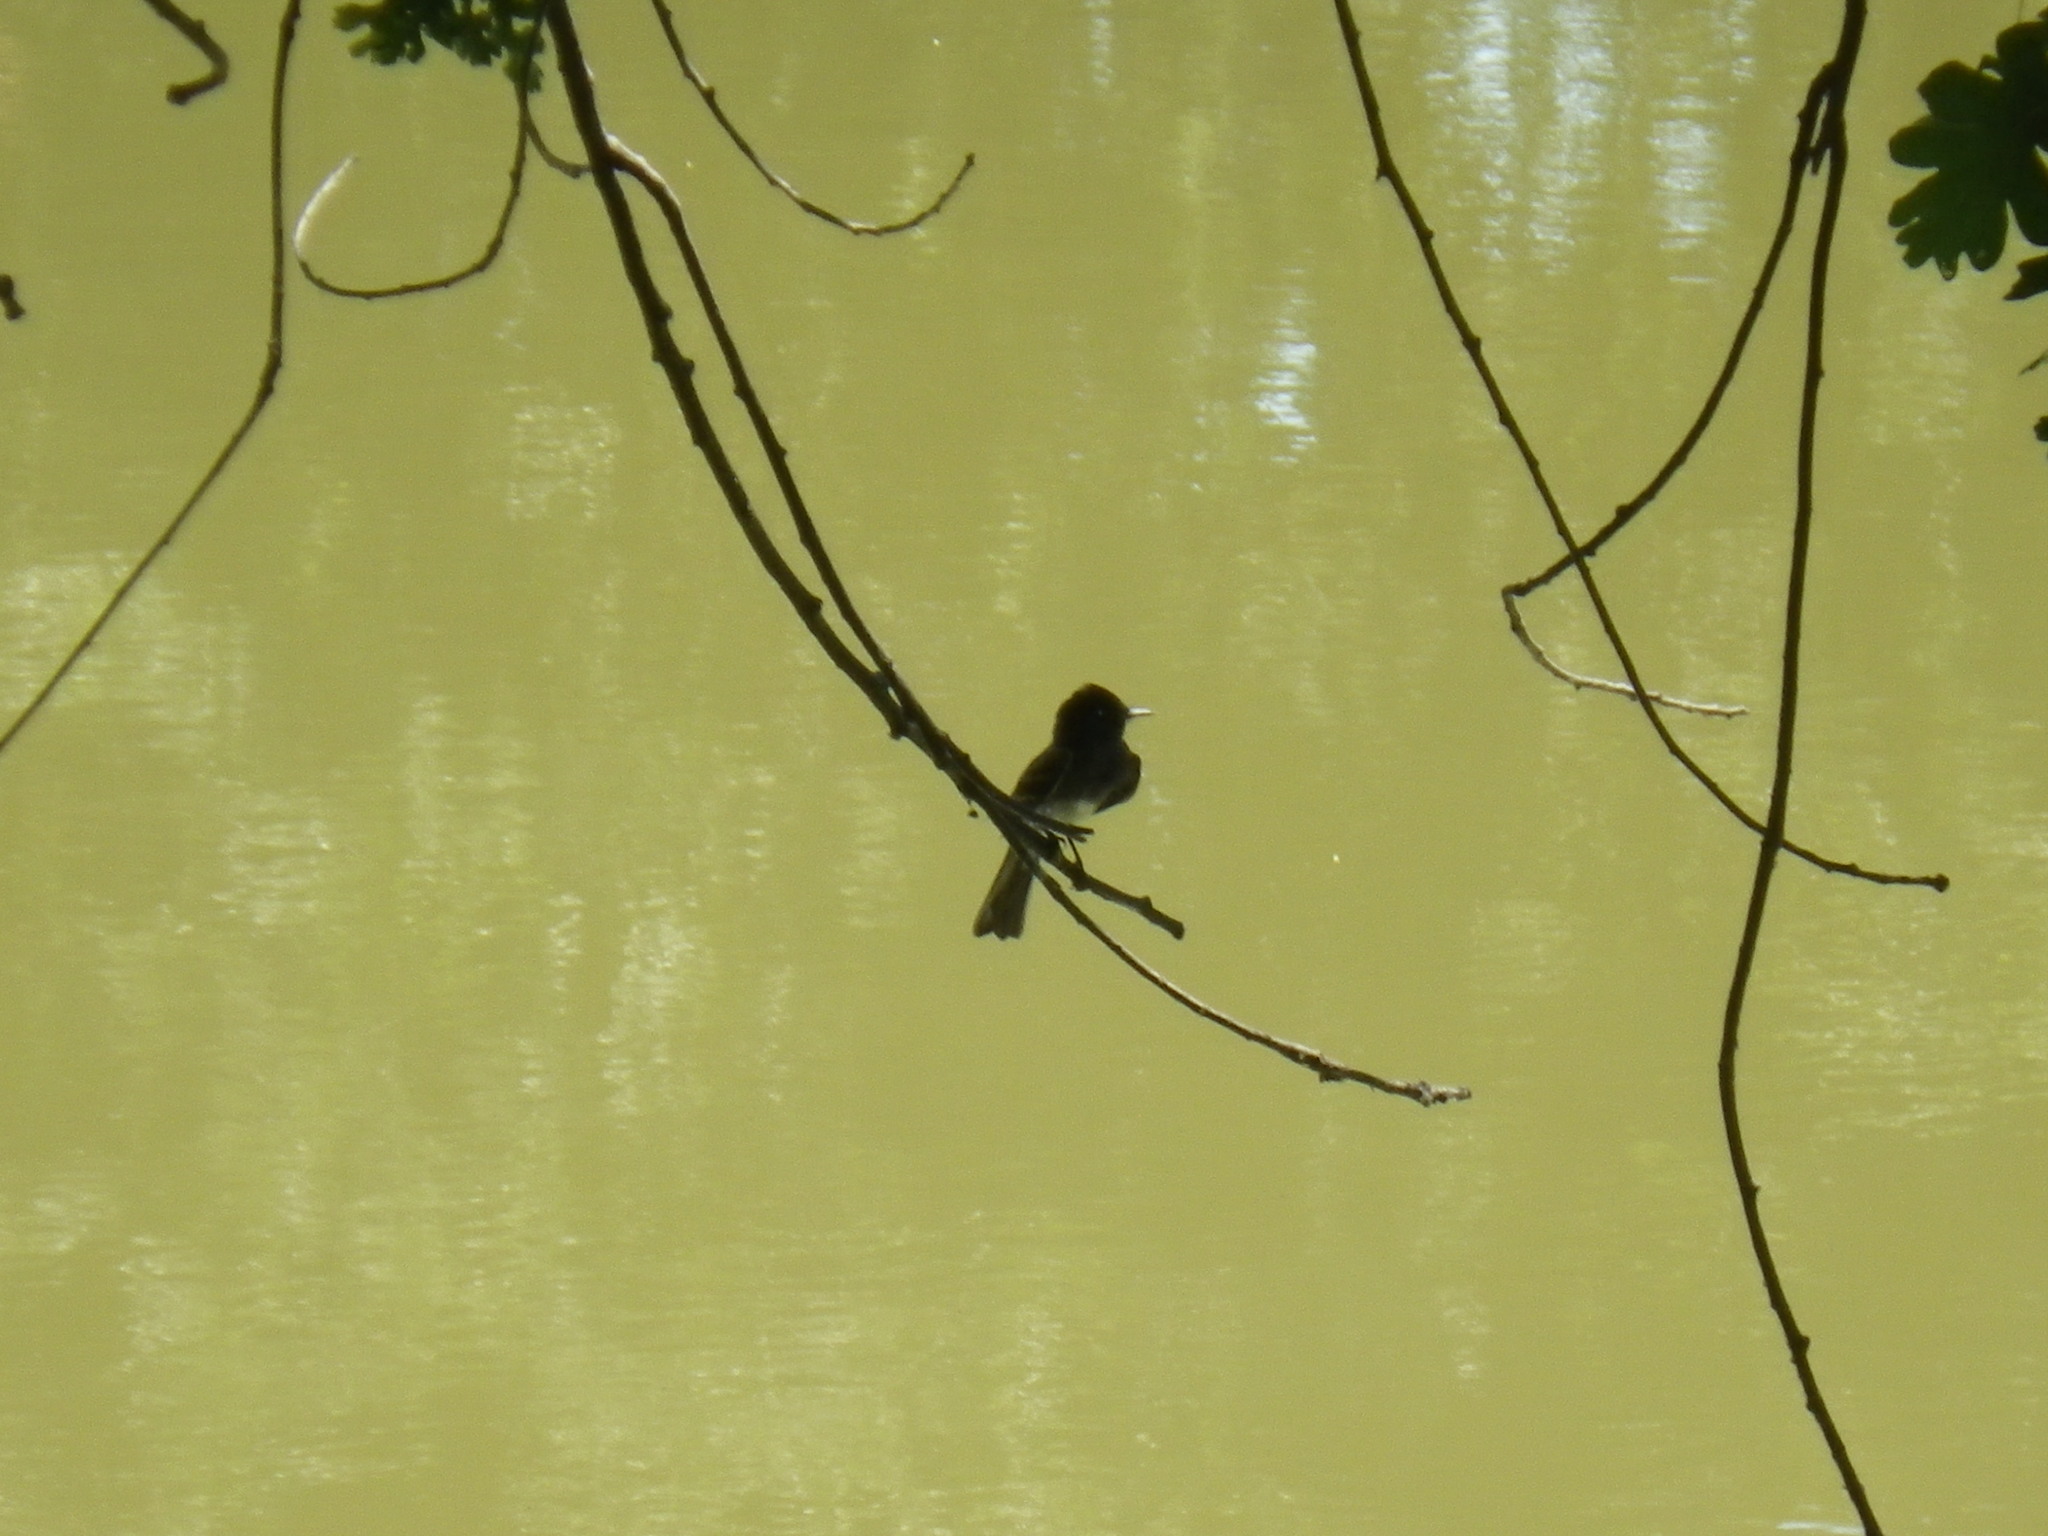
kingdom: Animalia
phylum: Chordata
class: Aves
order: Passeriformes
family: Tyrannidae
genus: Sayornis
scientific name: Sayornis nigricans
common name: Black phoebe
